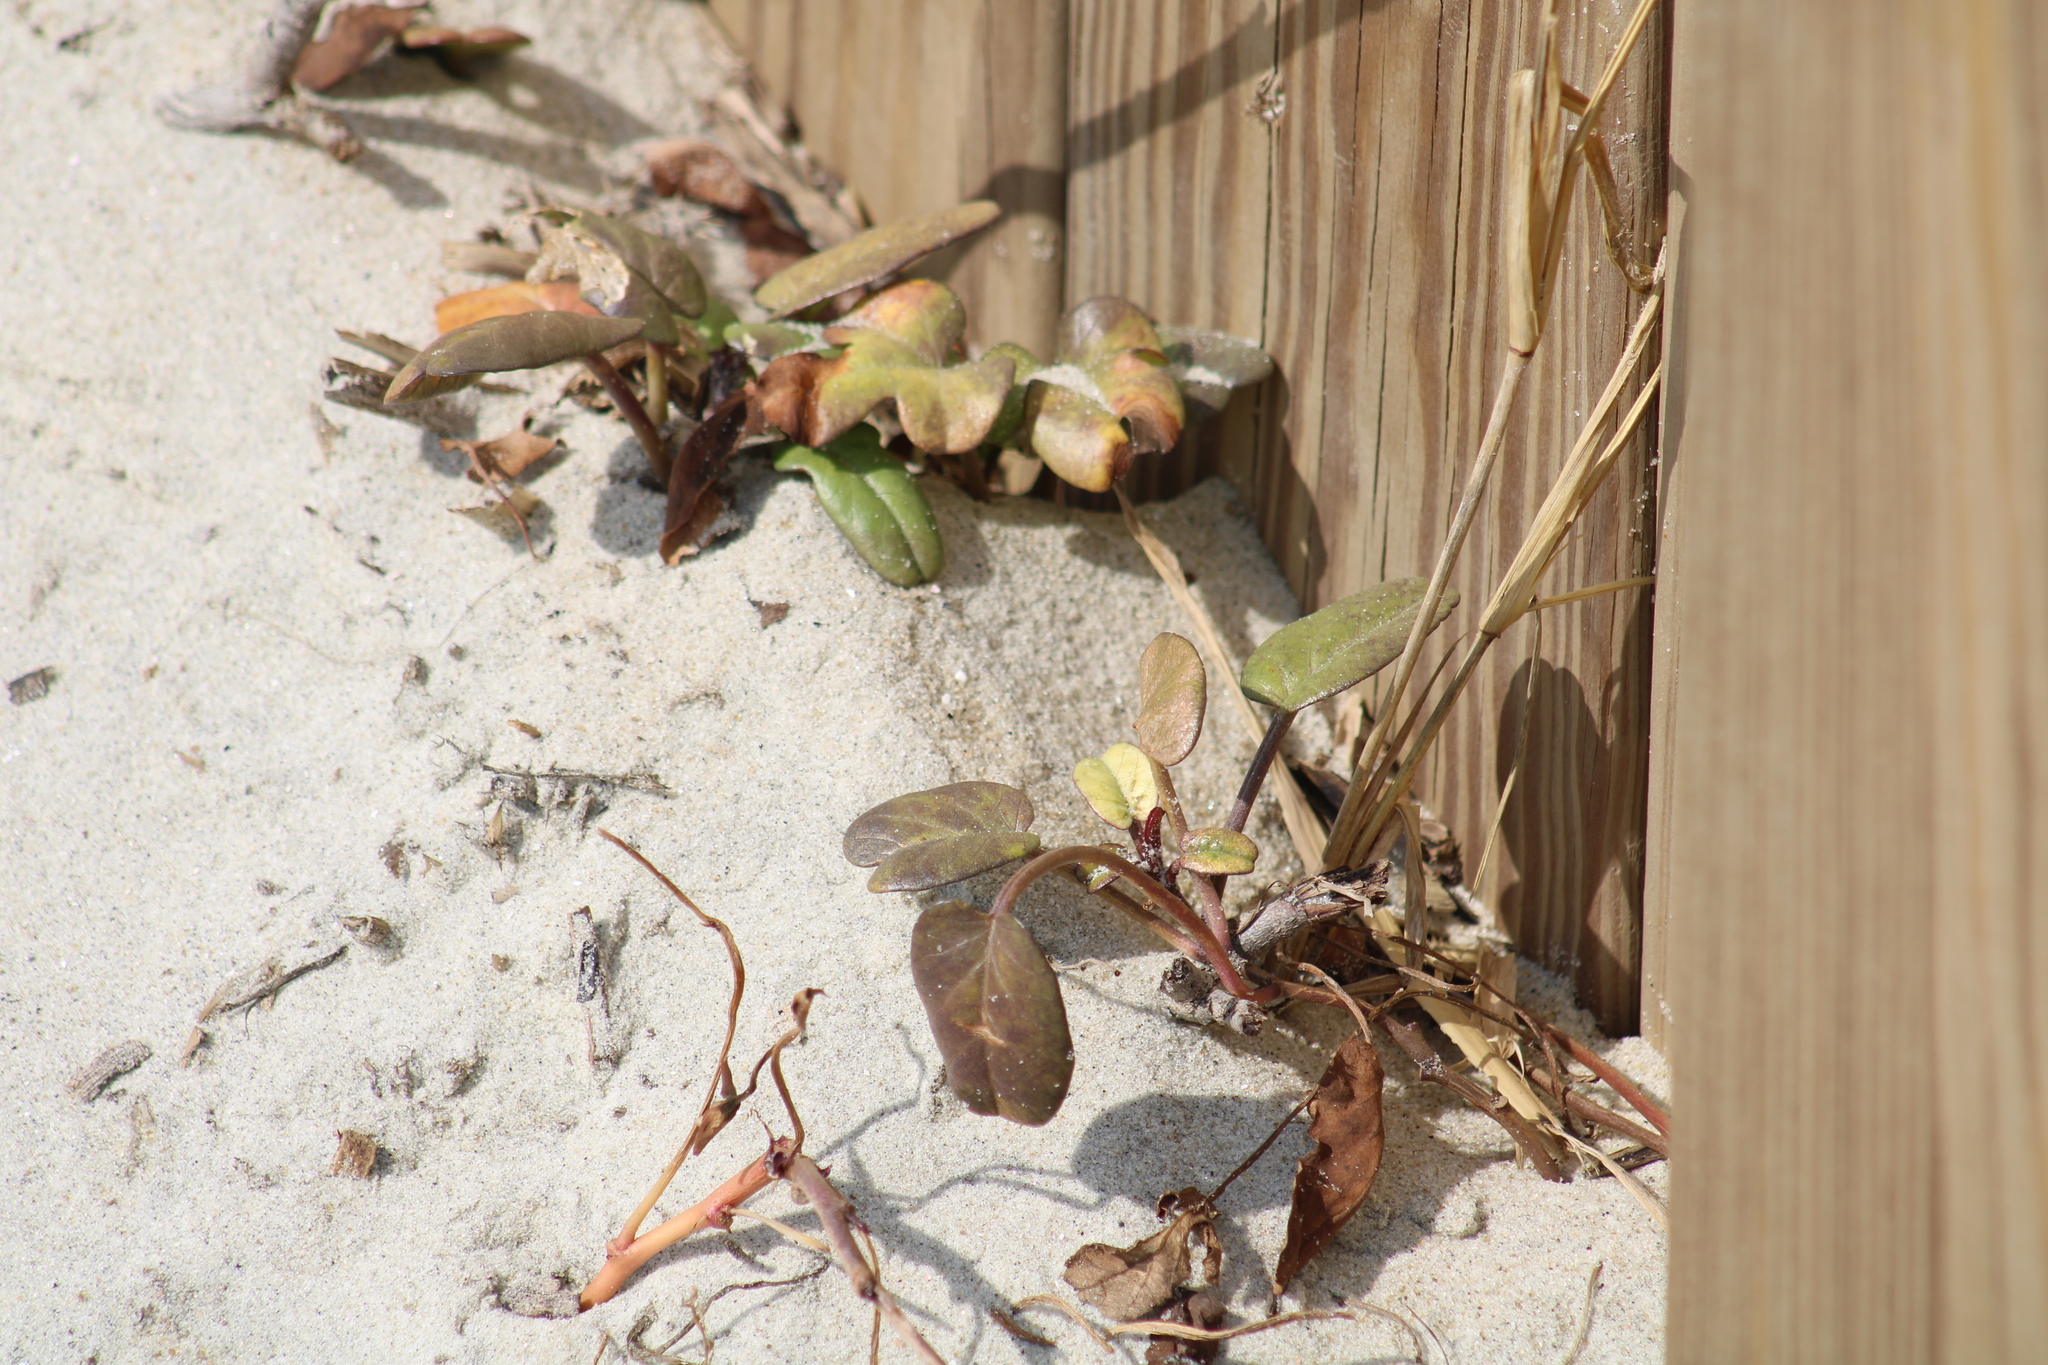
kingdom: Plantae
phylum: Tracheophyta
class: Magnoliopsida
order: Solanales
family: Convolvulaceae
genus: Ipomoea
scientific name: Ipomoea imperati
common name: Fiddle-leaf morning-glory
